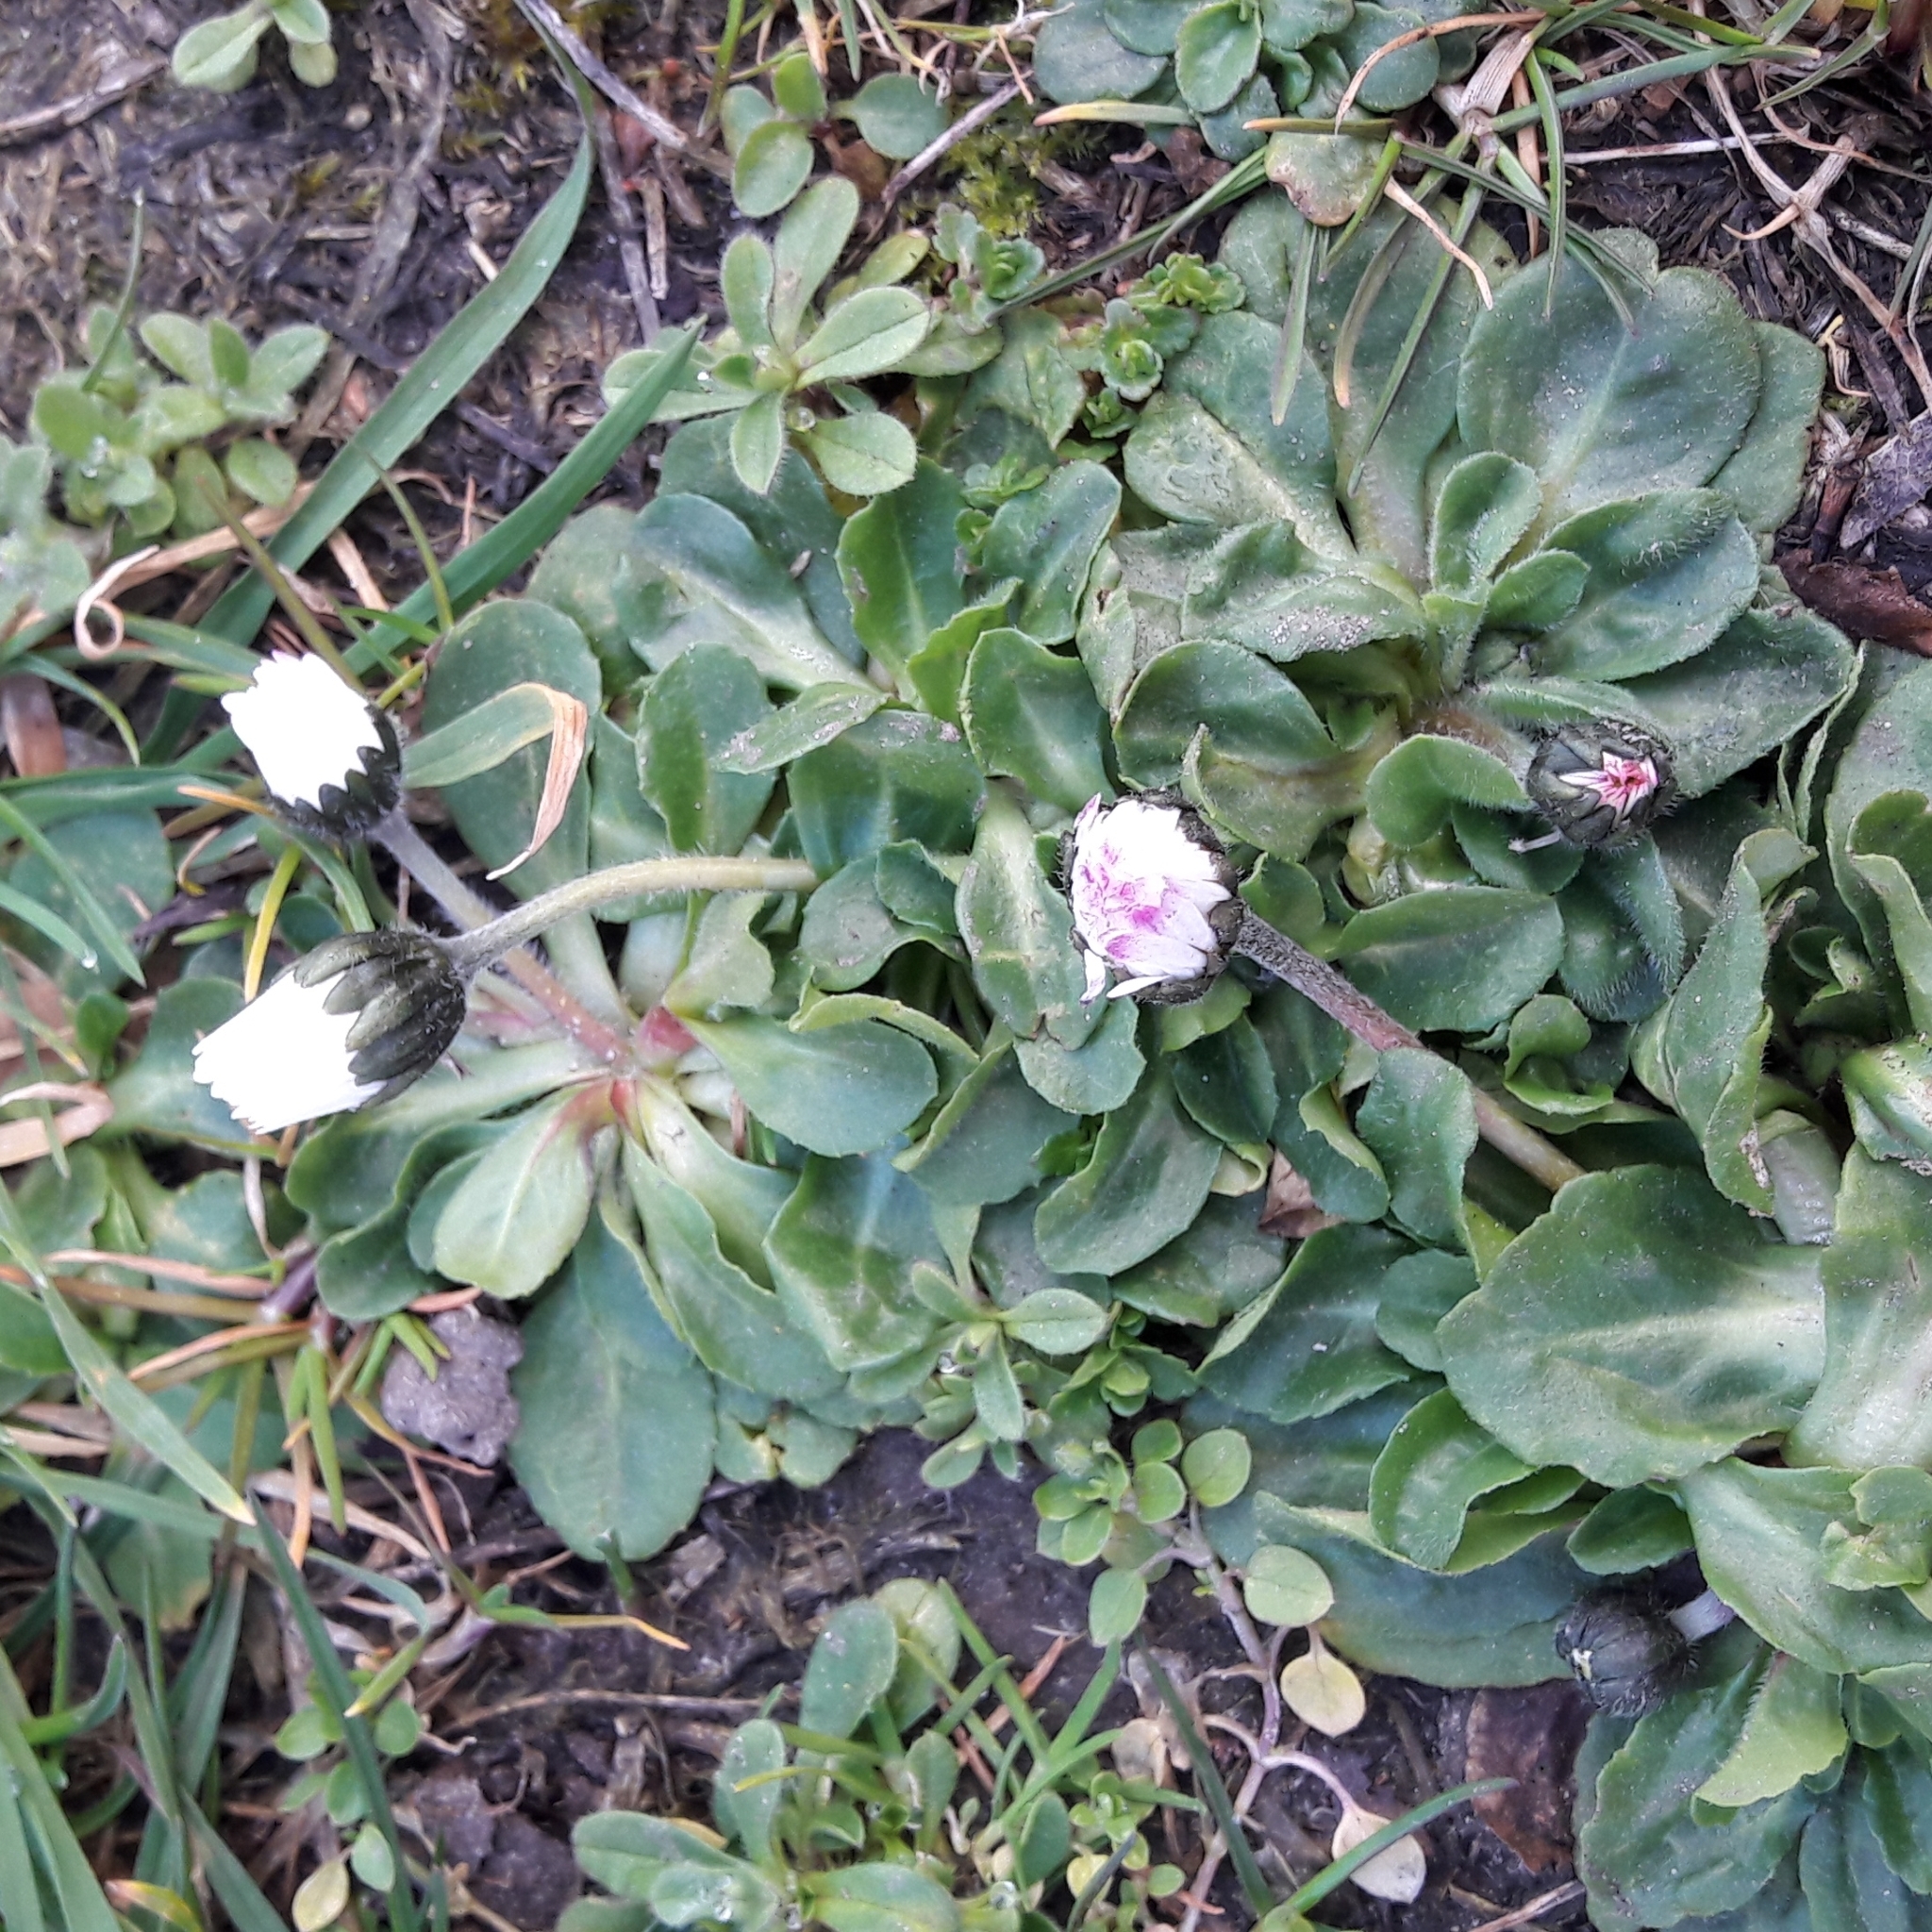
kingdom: Plantae
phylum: Tracheophyta
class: Magnoliopsida
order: Asterales
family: Asteraceae
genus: Bellis
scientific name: Bellis perennis
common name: Lawndaisy
